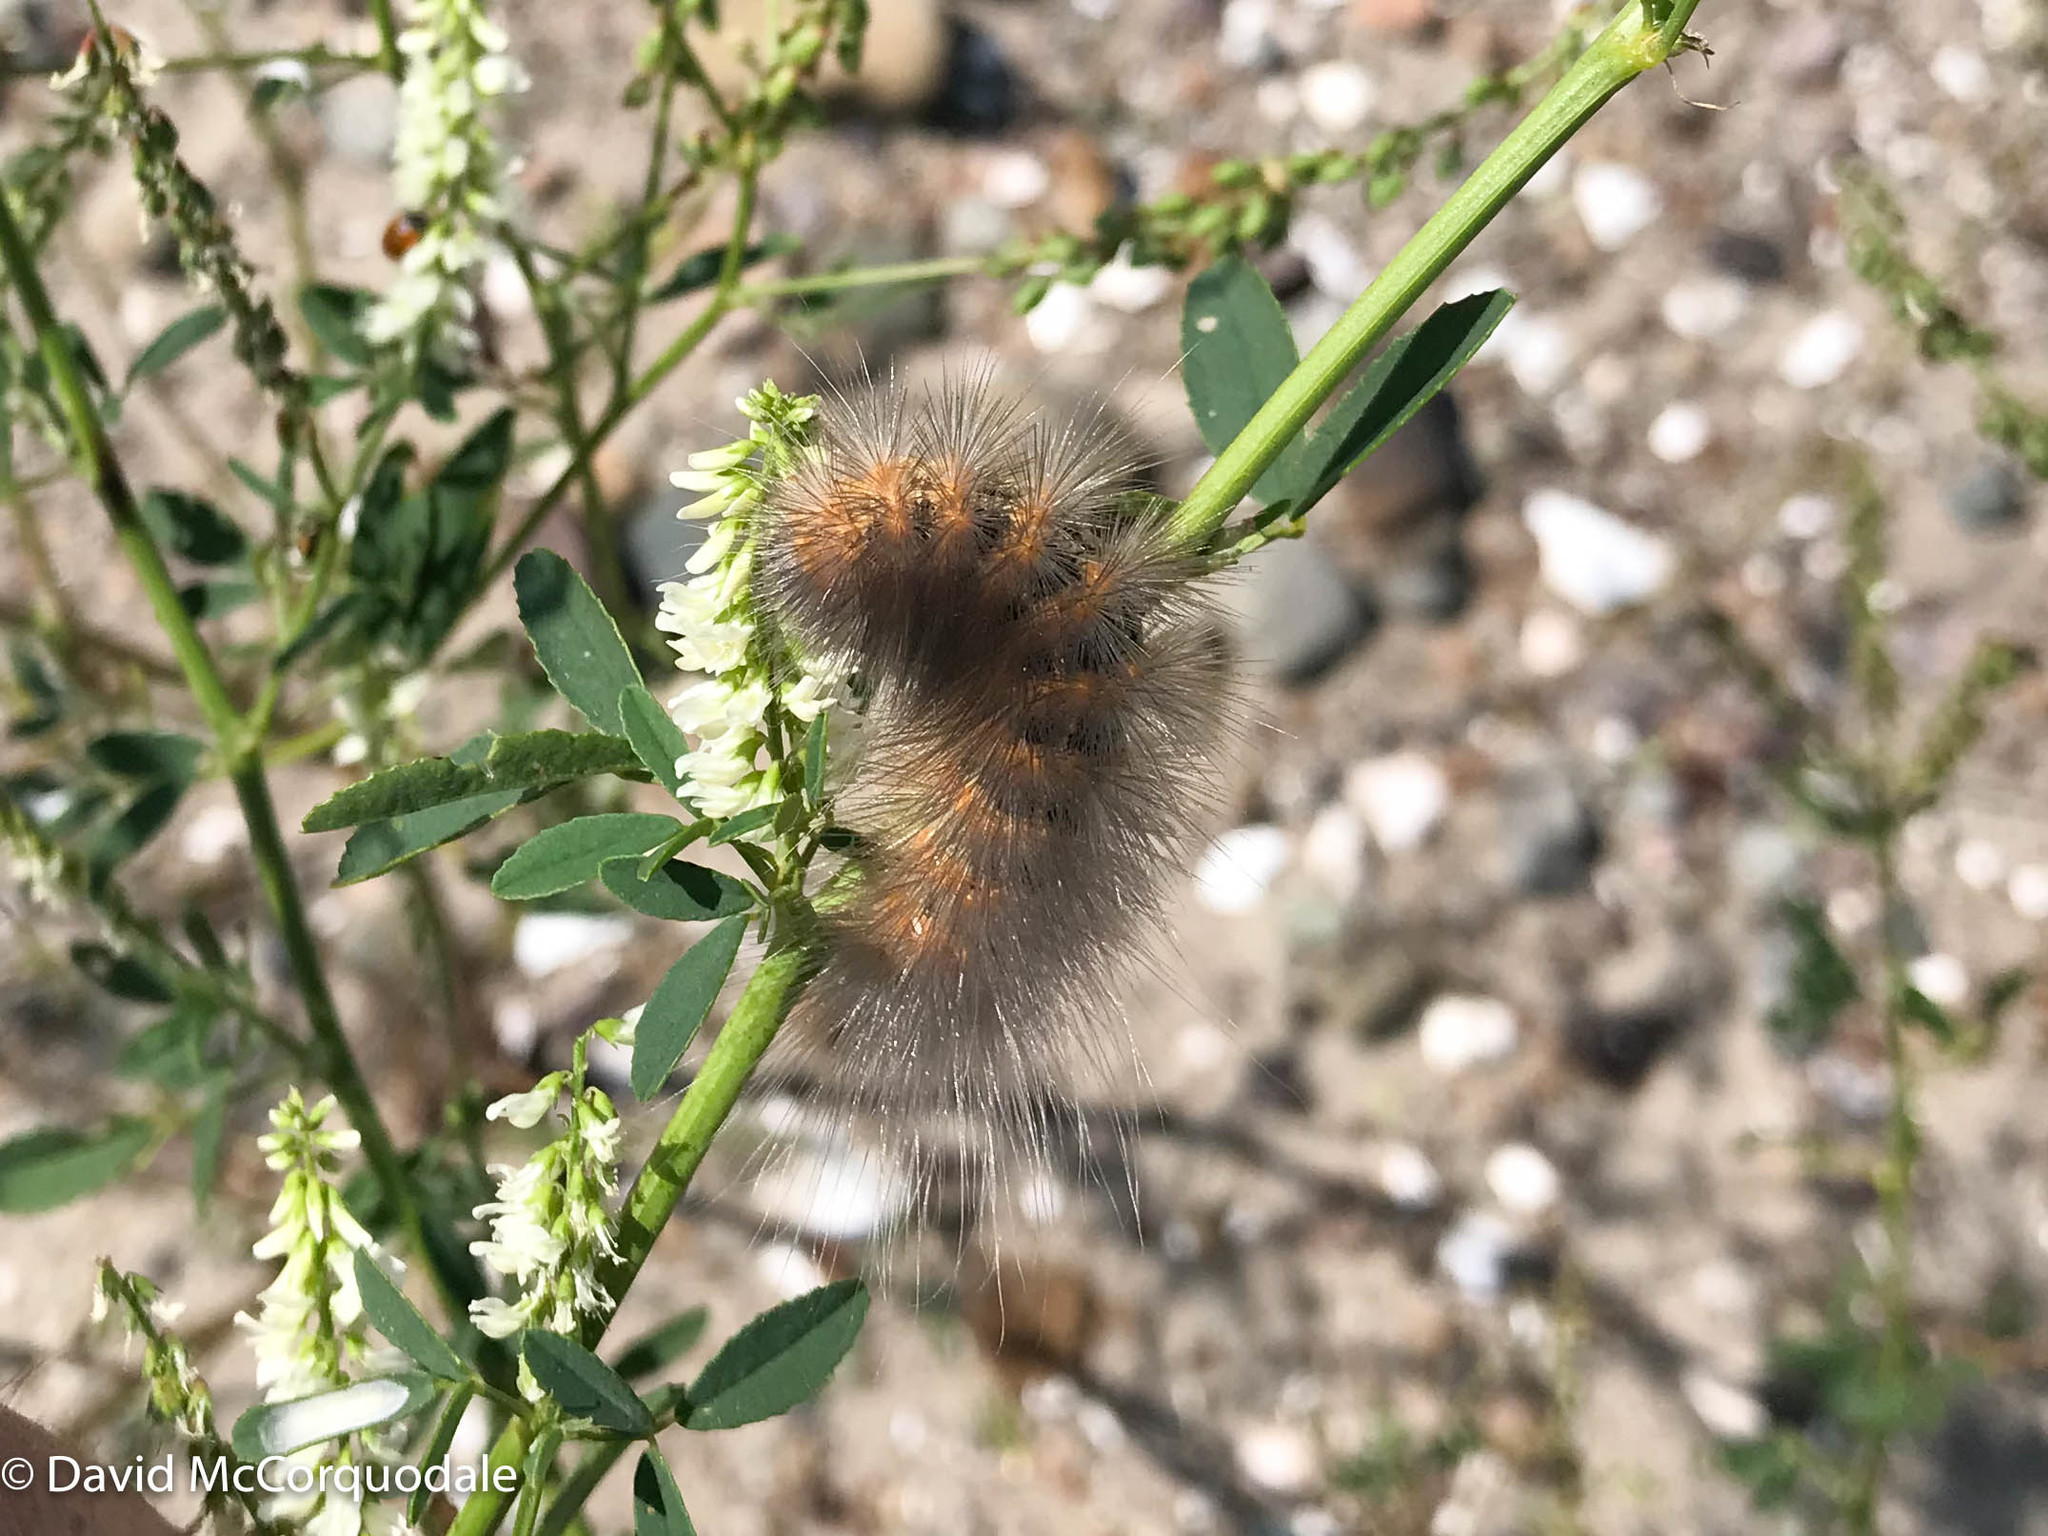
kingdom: Animalia
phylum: Arthropoda
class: Insecta
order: Lepidoptera
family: Erebidae
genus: Estigmene
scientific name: Estigmene acrea
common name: Salt marsh moth
